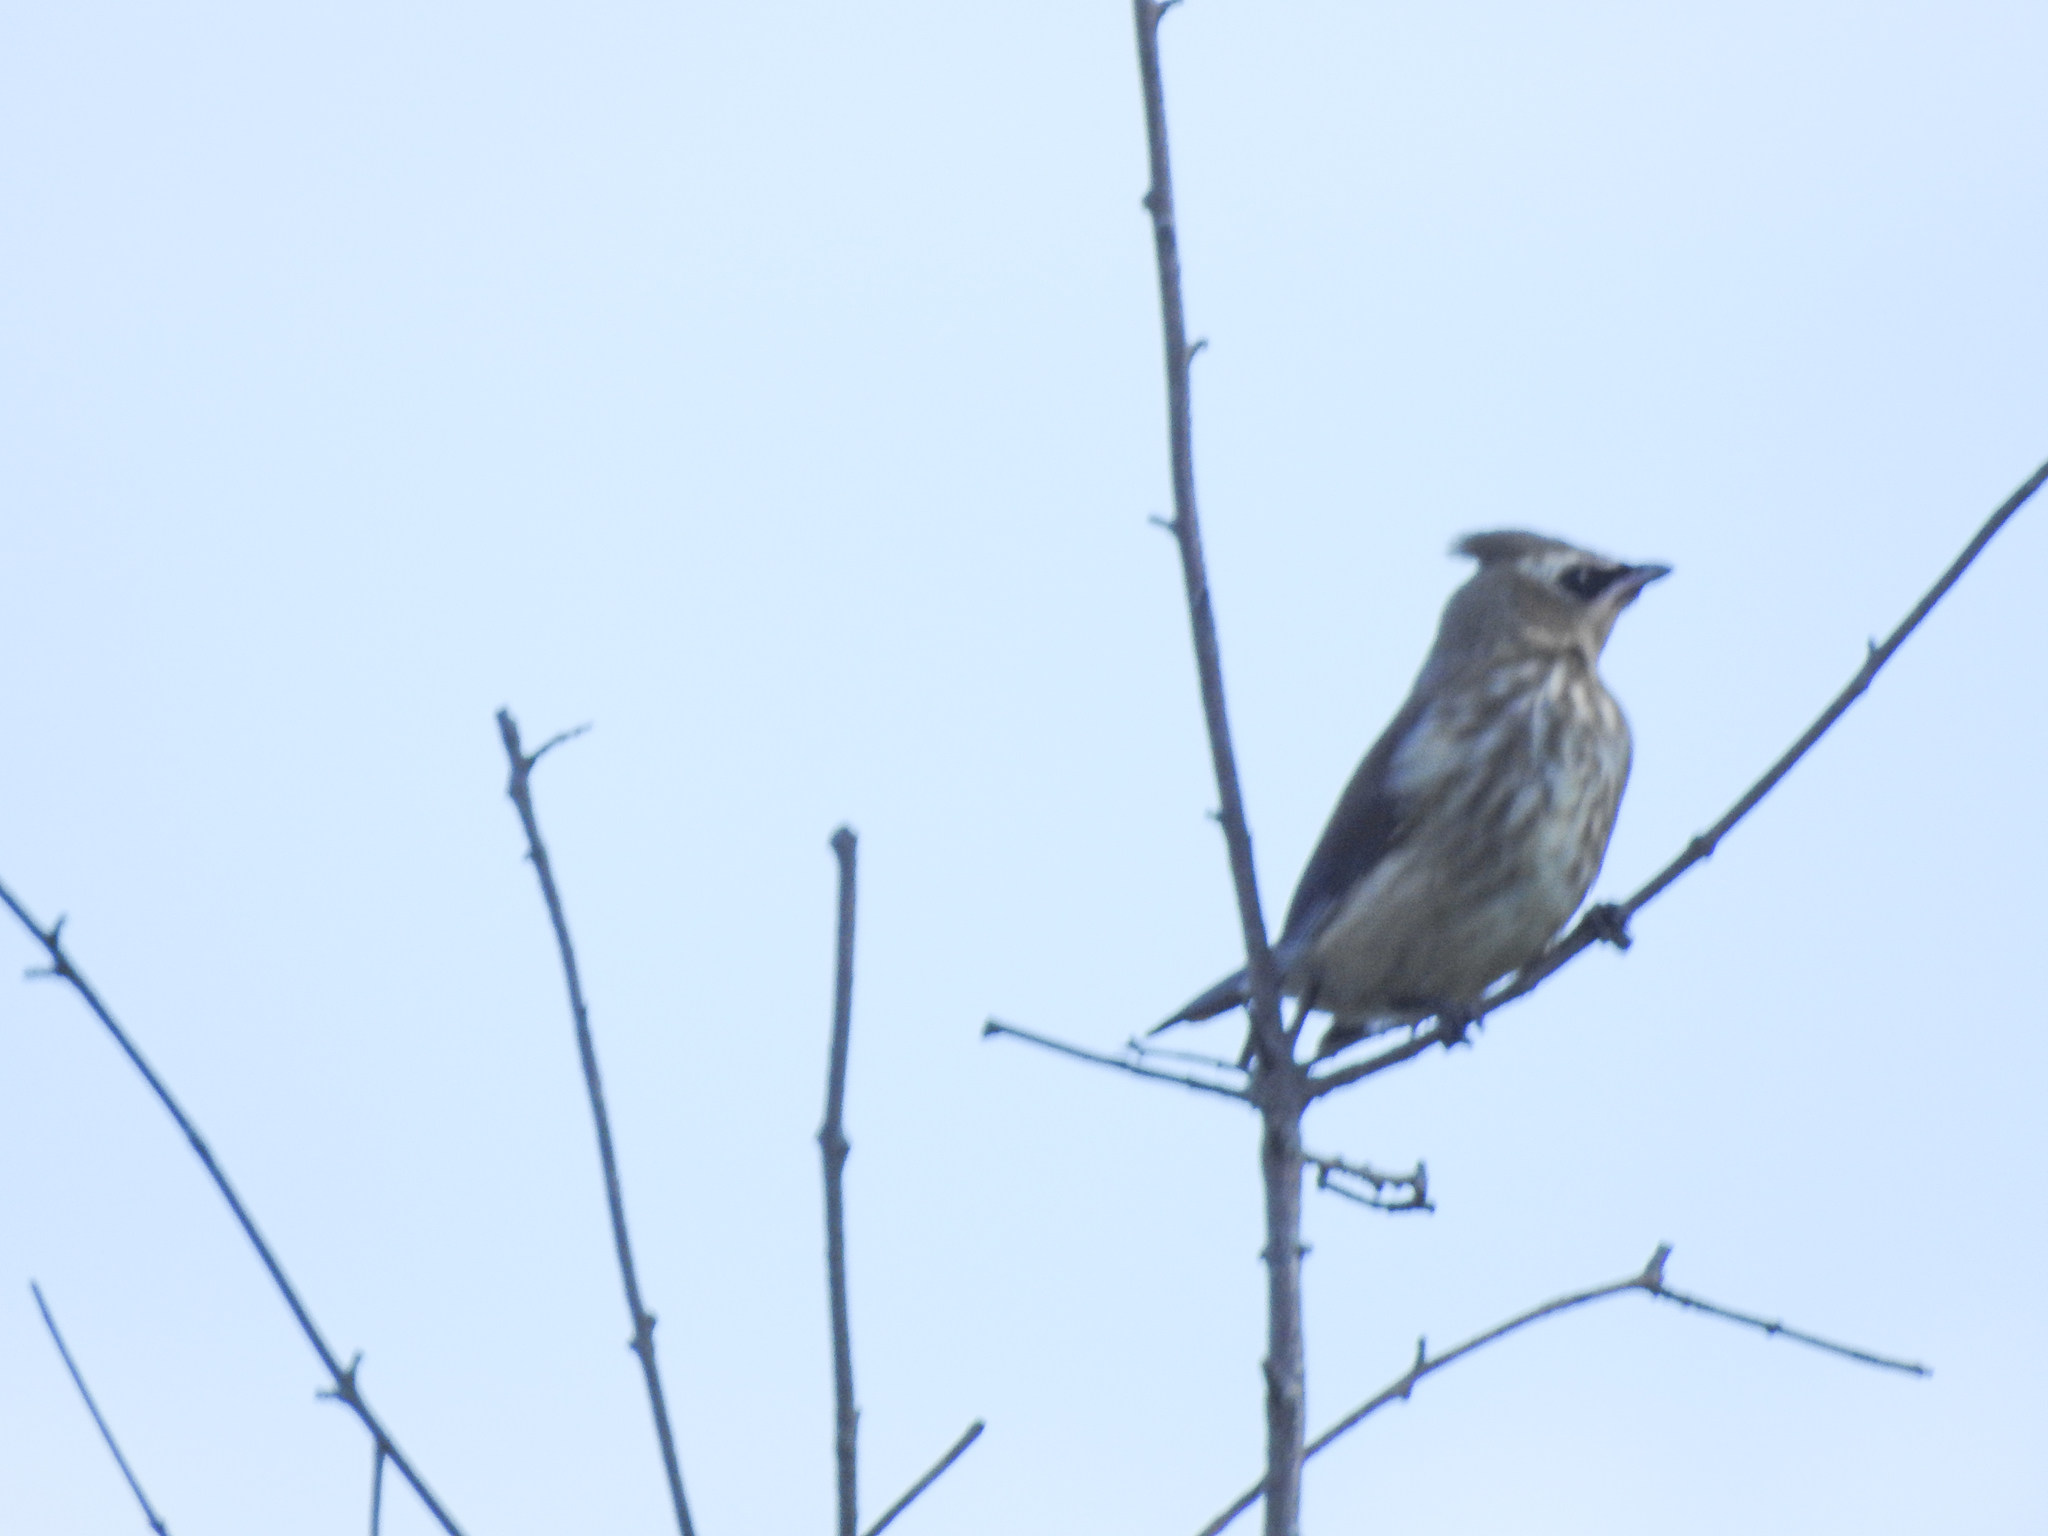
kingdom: Animalia
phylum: Chordata
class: Aves
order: Passeriformes
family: Bombycillidae
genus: Bombycilla
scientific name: Bombycilla cedrorum
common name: Cedar waxwing
